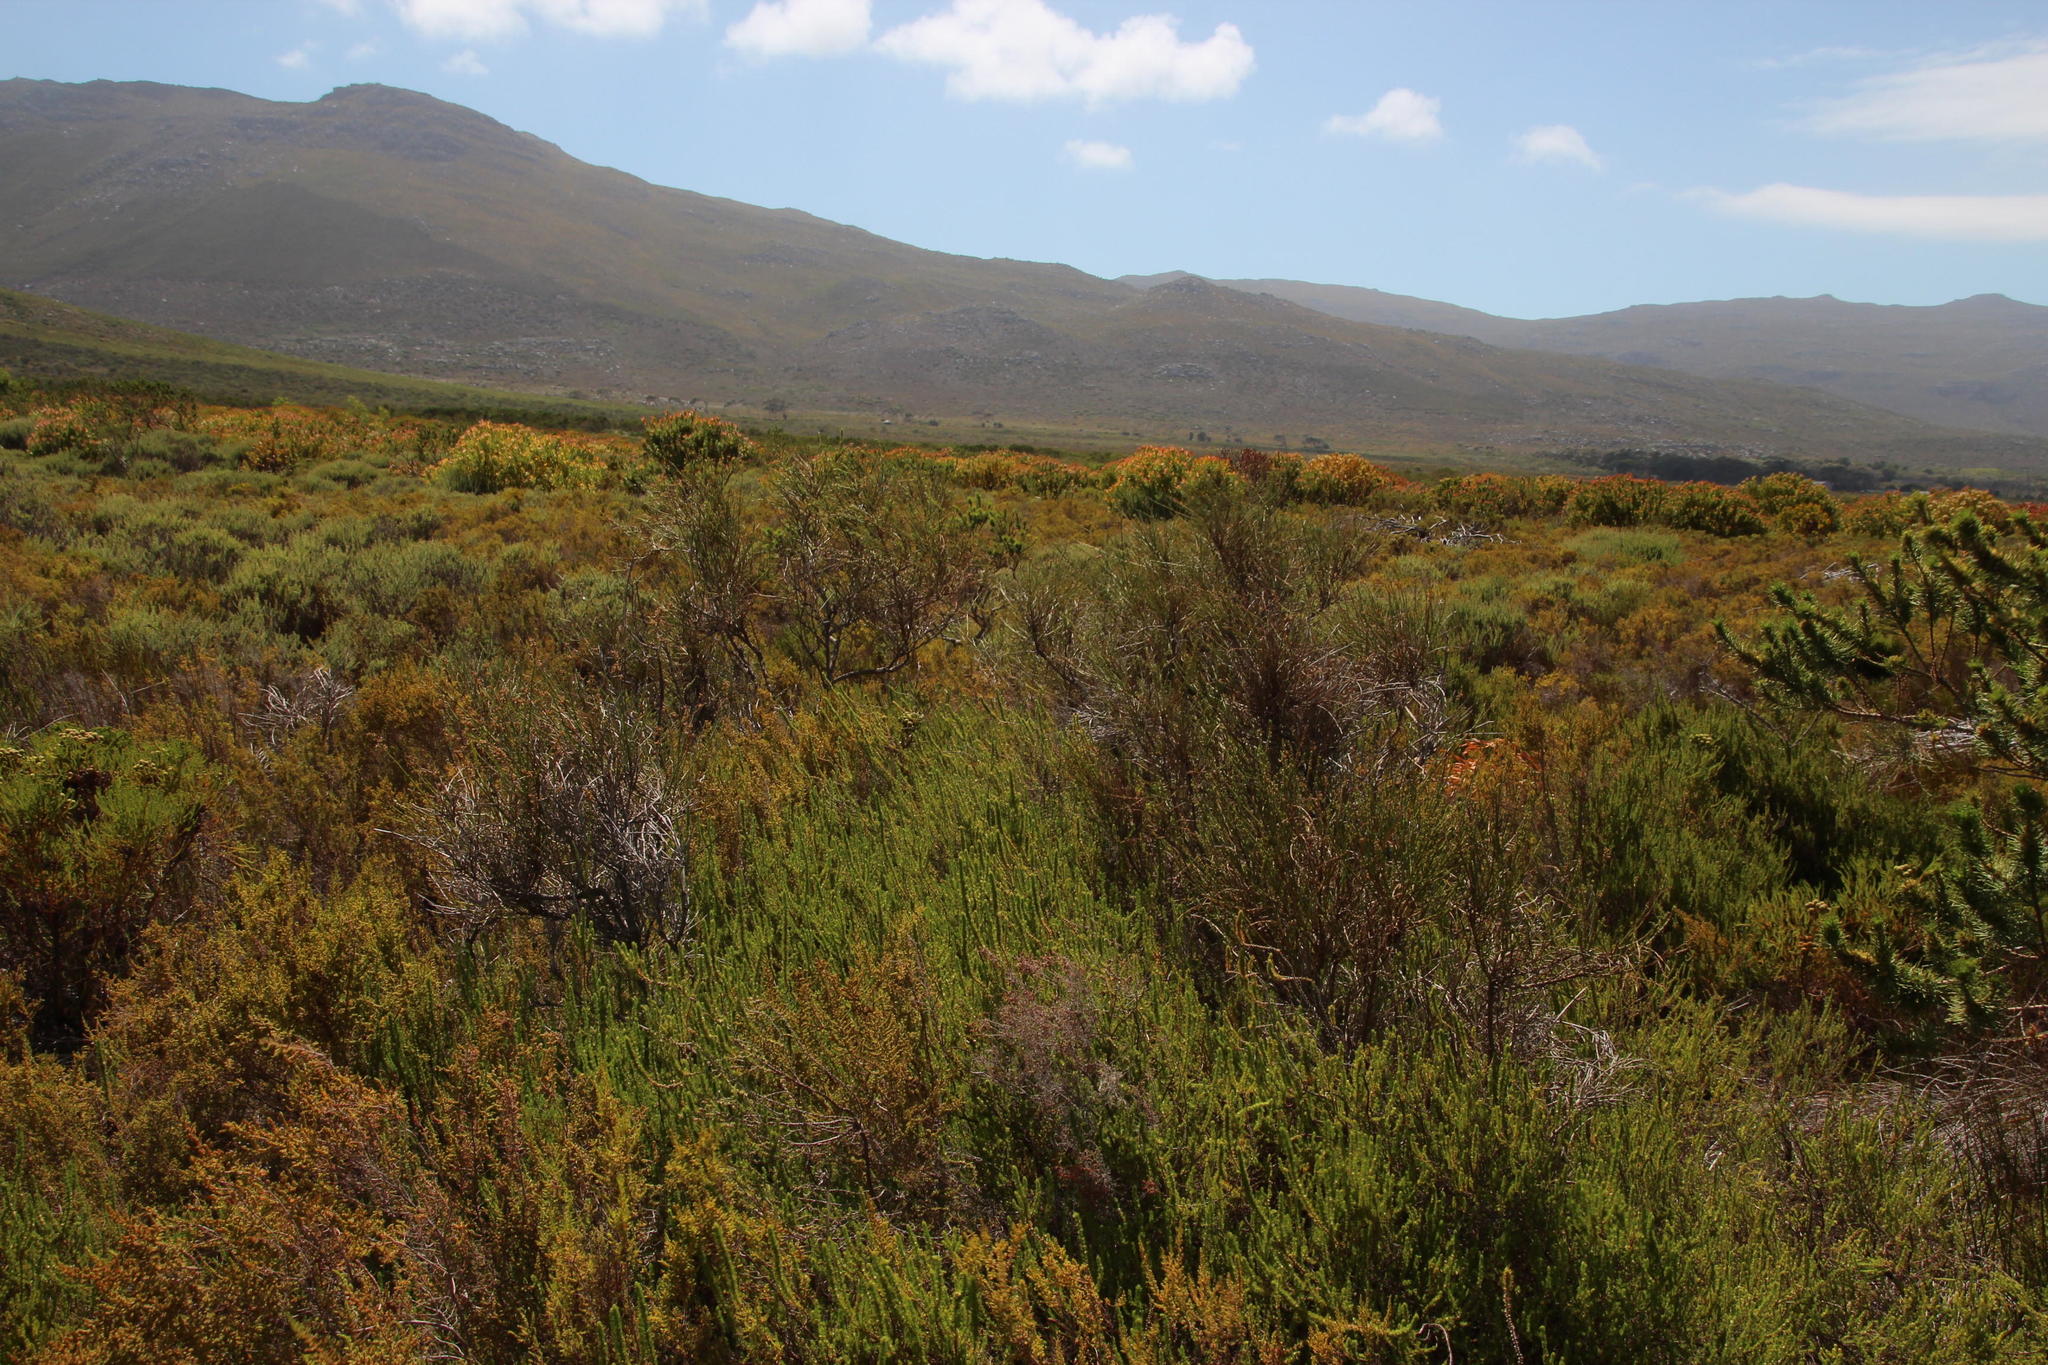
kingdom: Plantae
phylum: Tracheophyta
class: Magnoliopsida
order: Proteales
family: Proteaceae
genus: Leucadendron
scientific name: Leucadendron laureolum
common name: Golden sunshinebush
